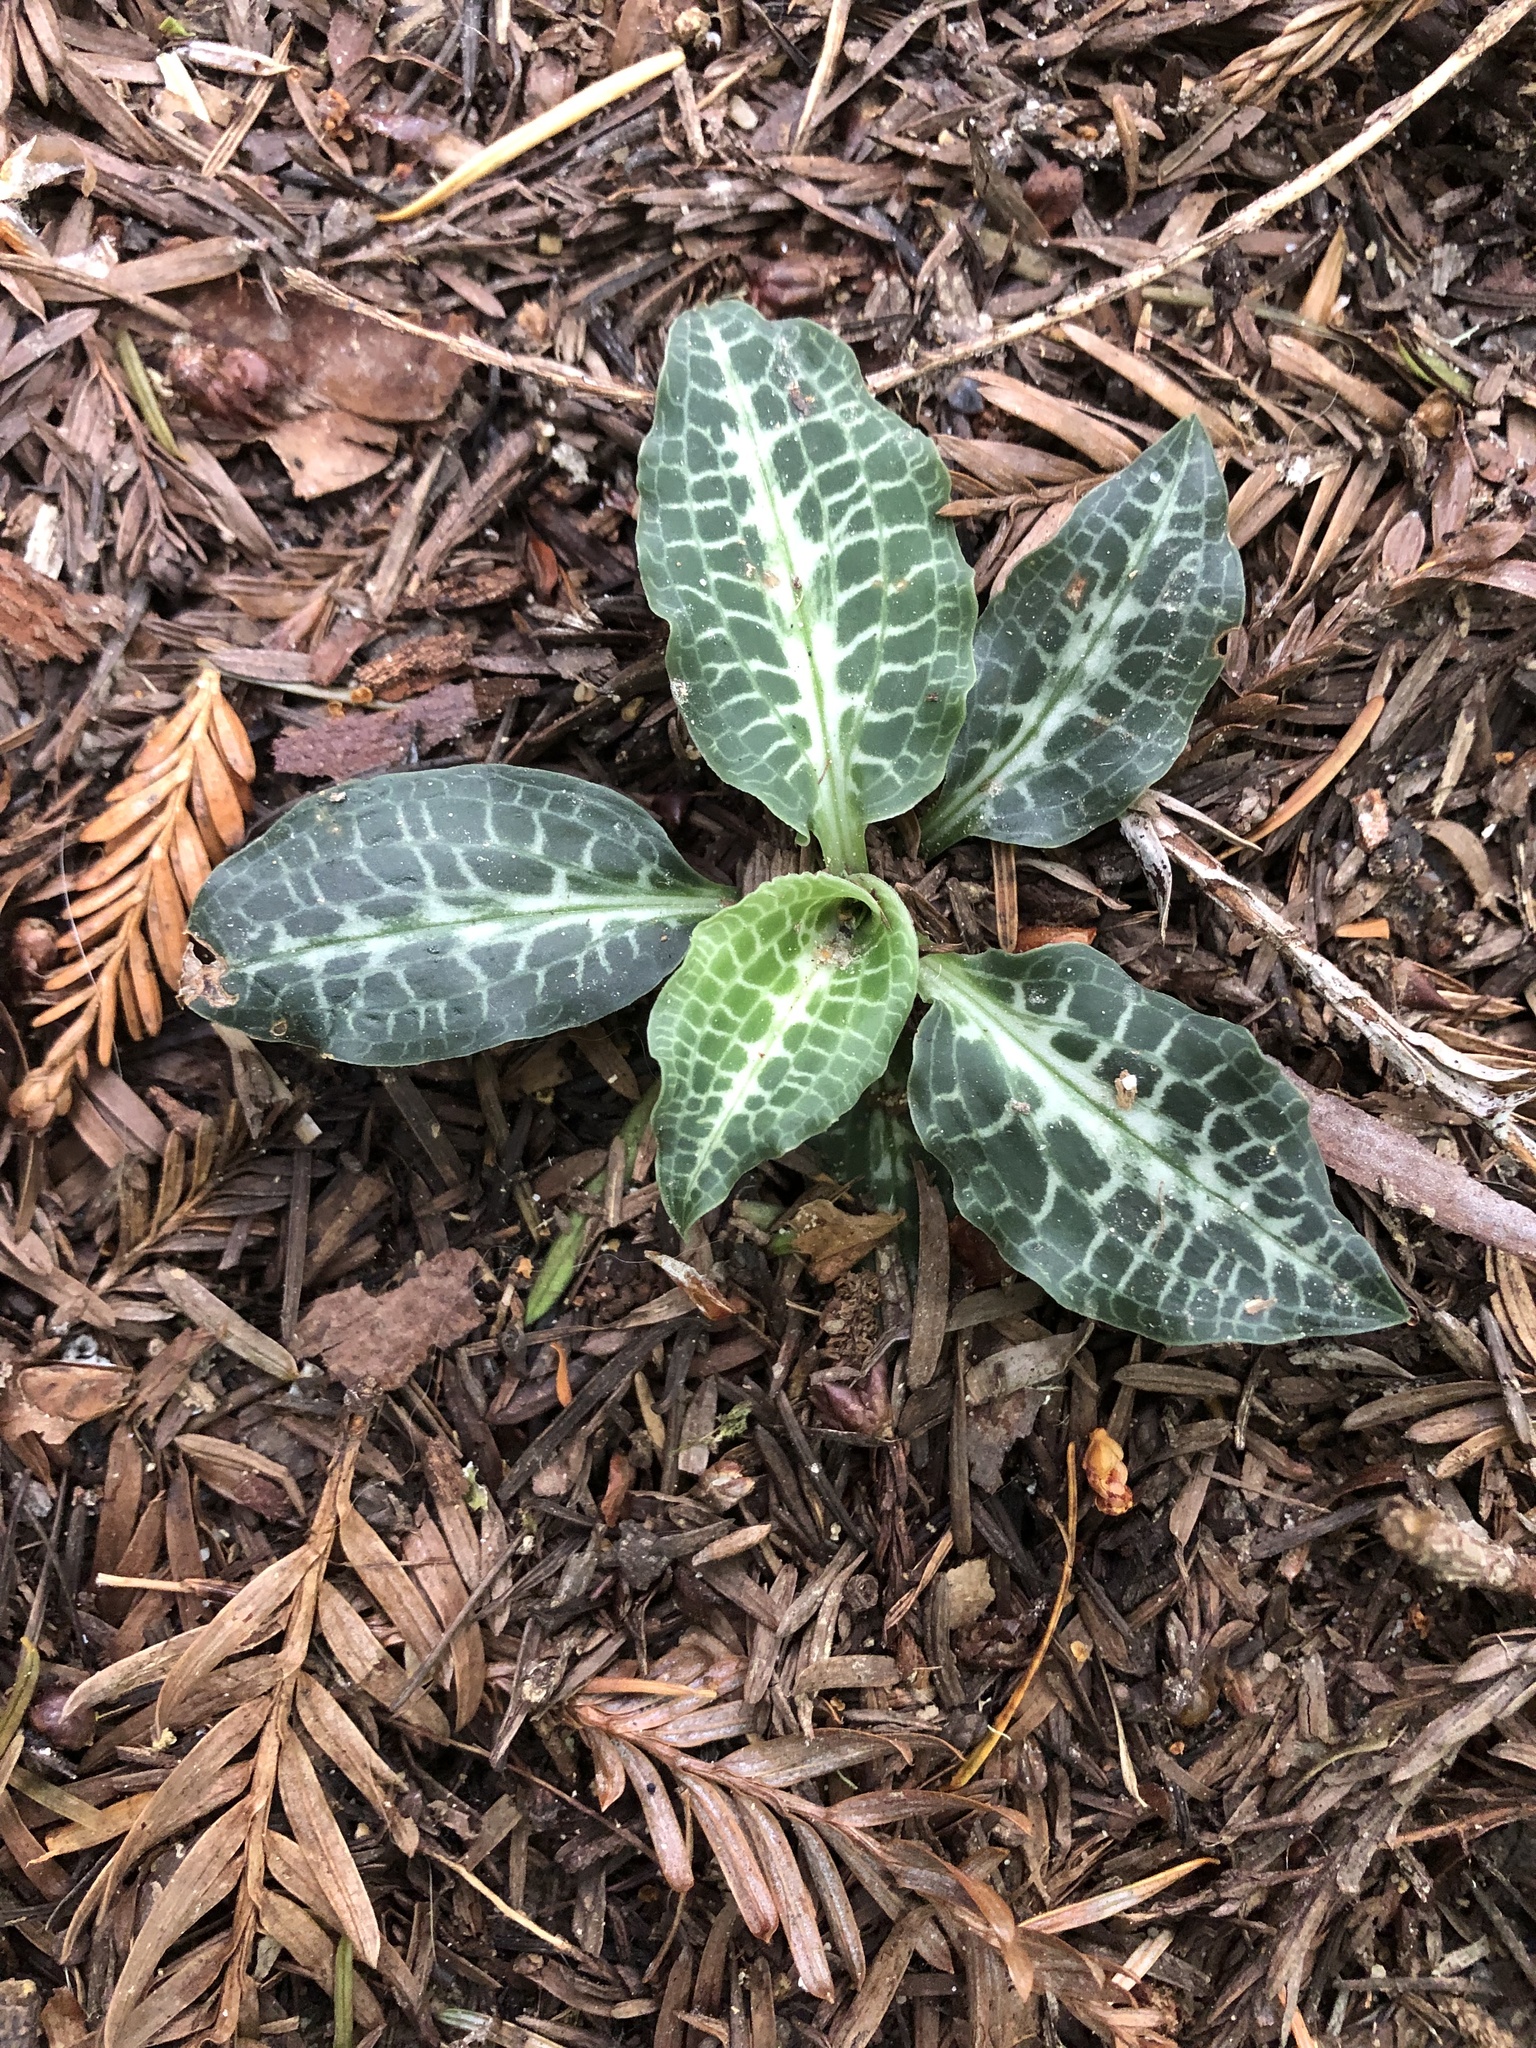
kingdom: Plantae
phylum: Tracheophyta
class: Liliopsida
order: Asparagales
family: Orchidaceae
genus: Goodyera
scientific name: Goodyera oblongifolia
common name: Giant rattlesnake-plantain
